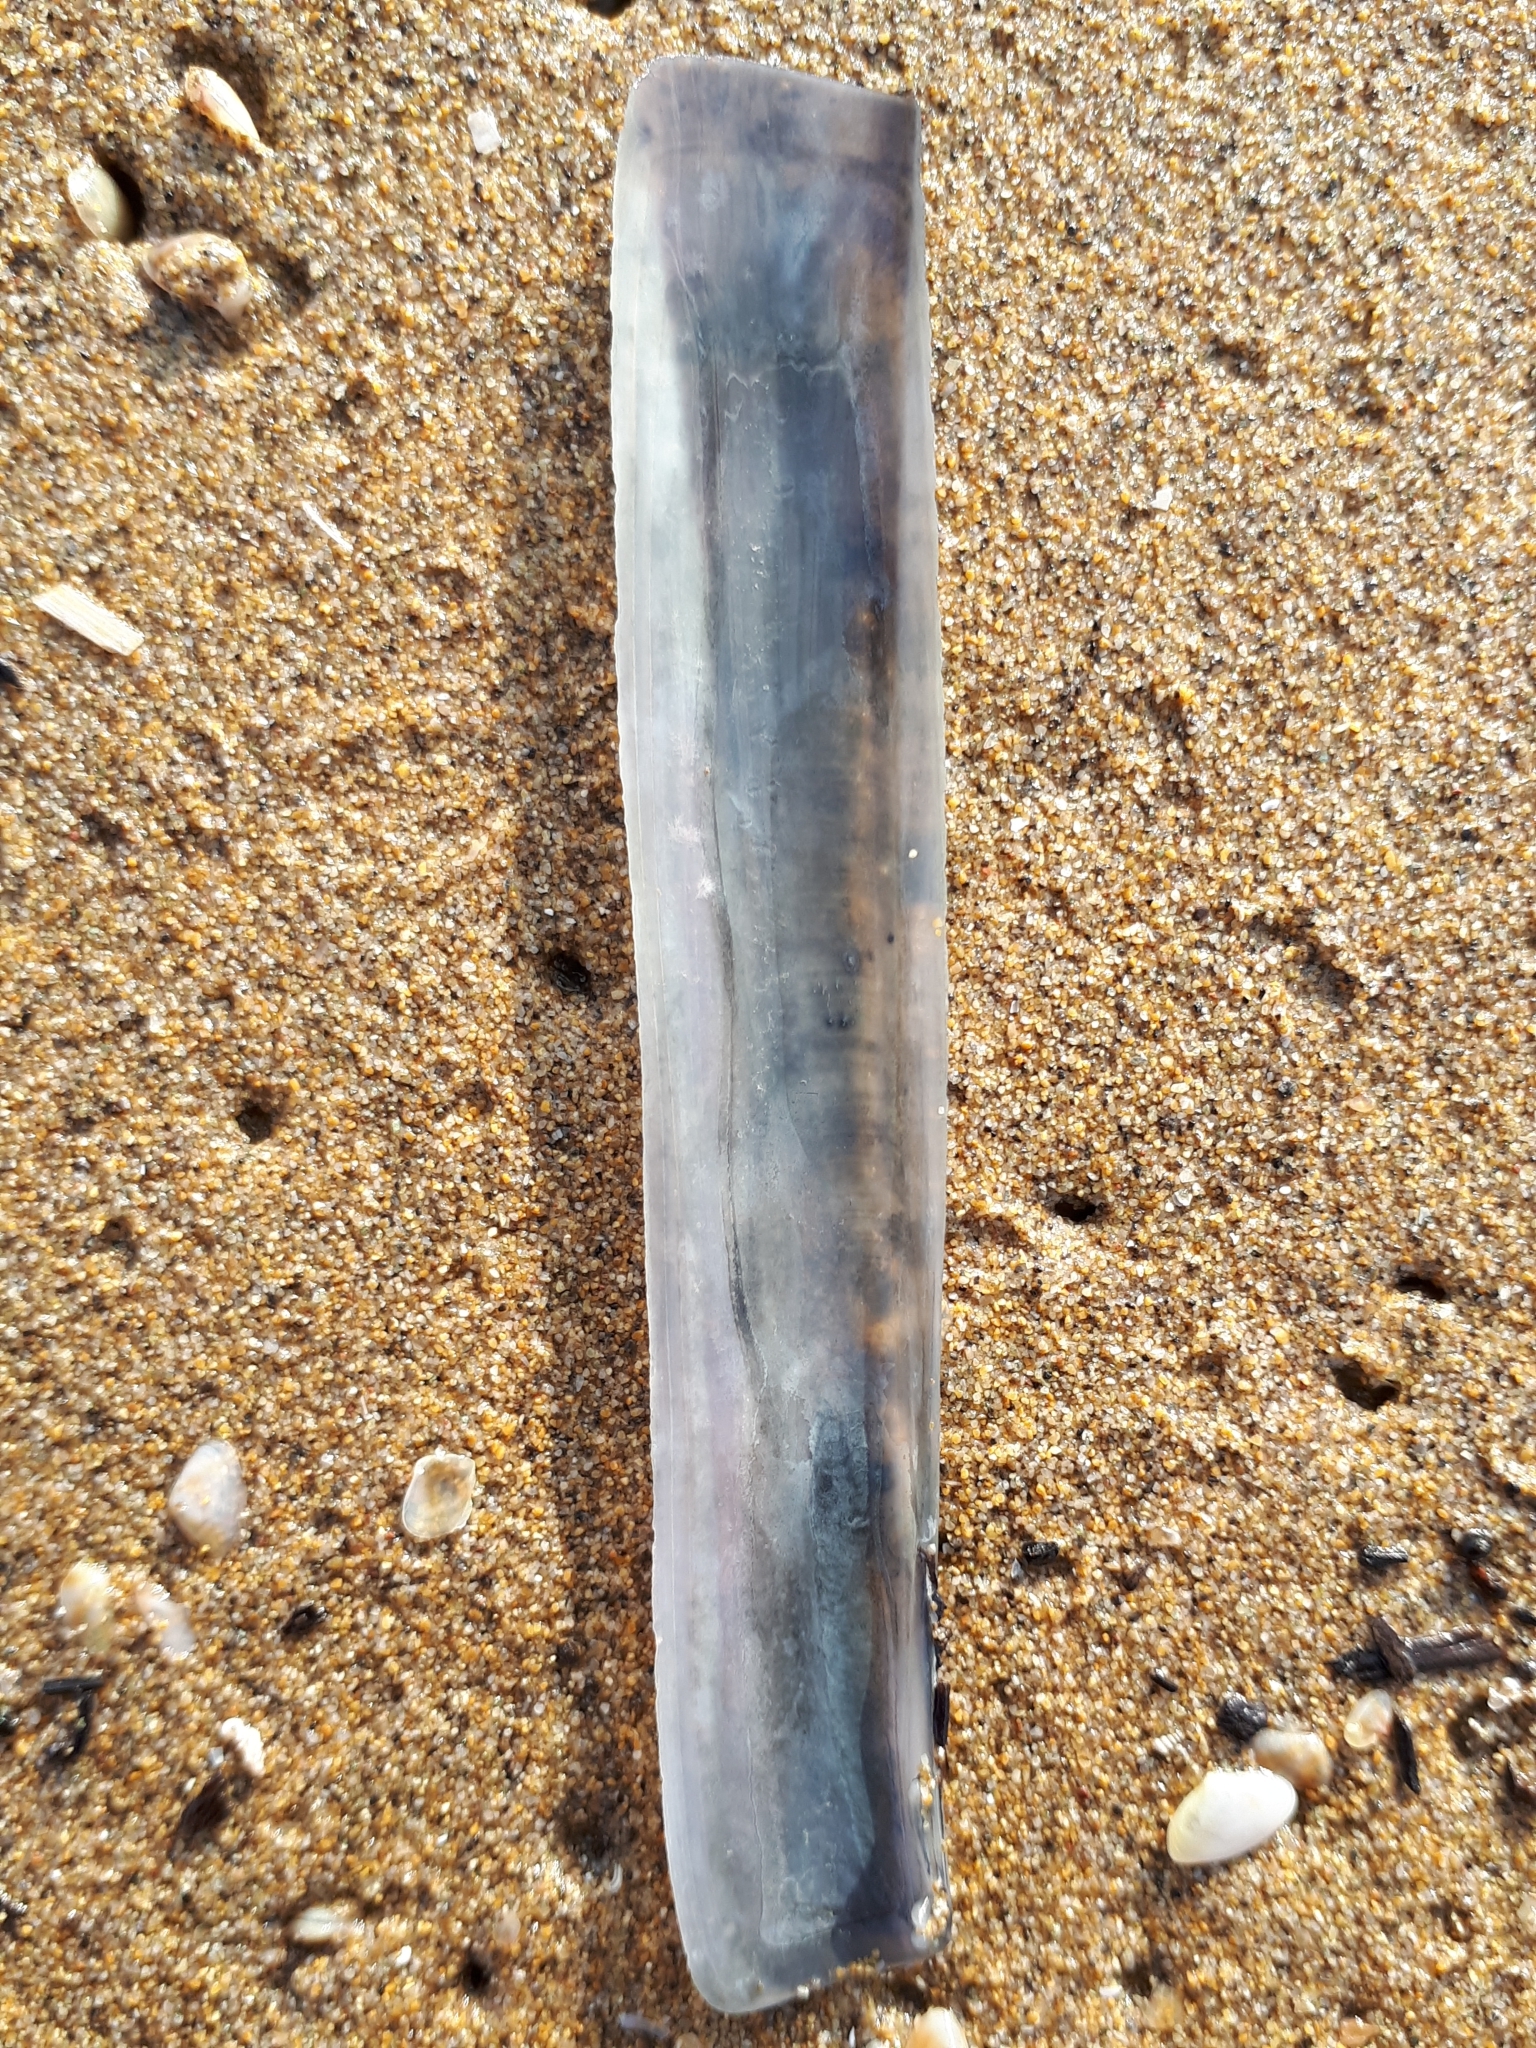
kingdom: Animalia
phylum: Mollusca
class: Bivalvia
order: Adapedonta
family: Pharidae
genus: Ensis
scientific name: Ensis minor
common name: Minor jackknife clam
